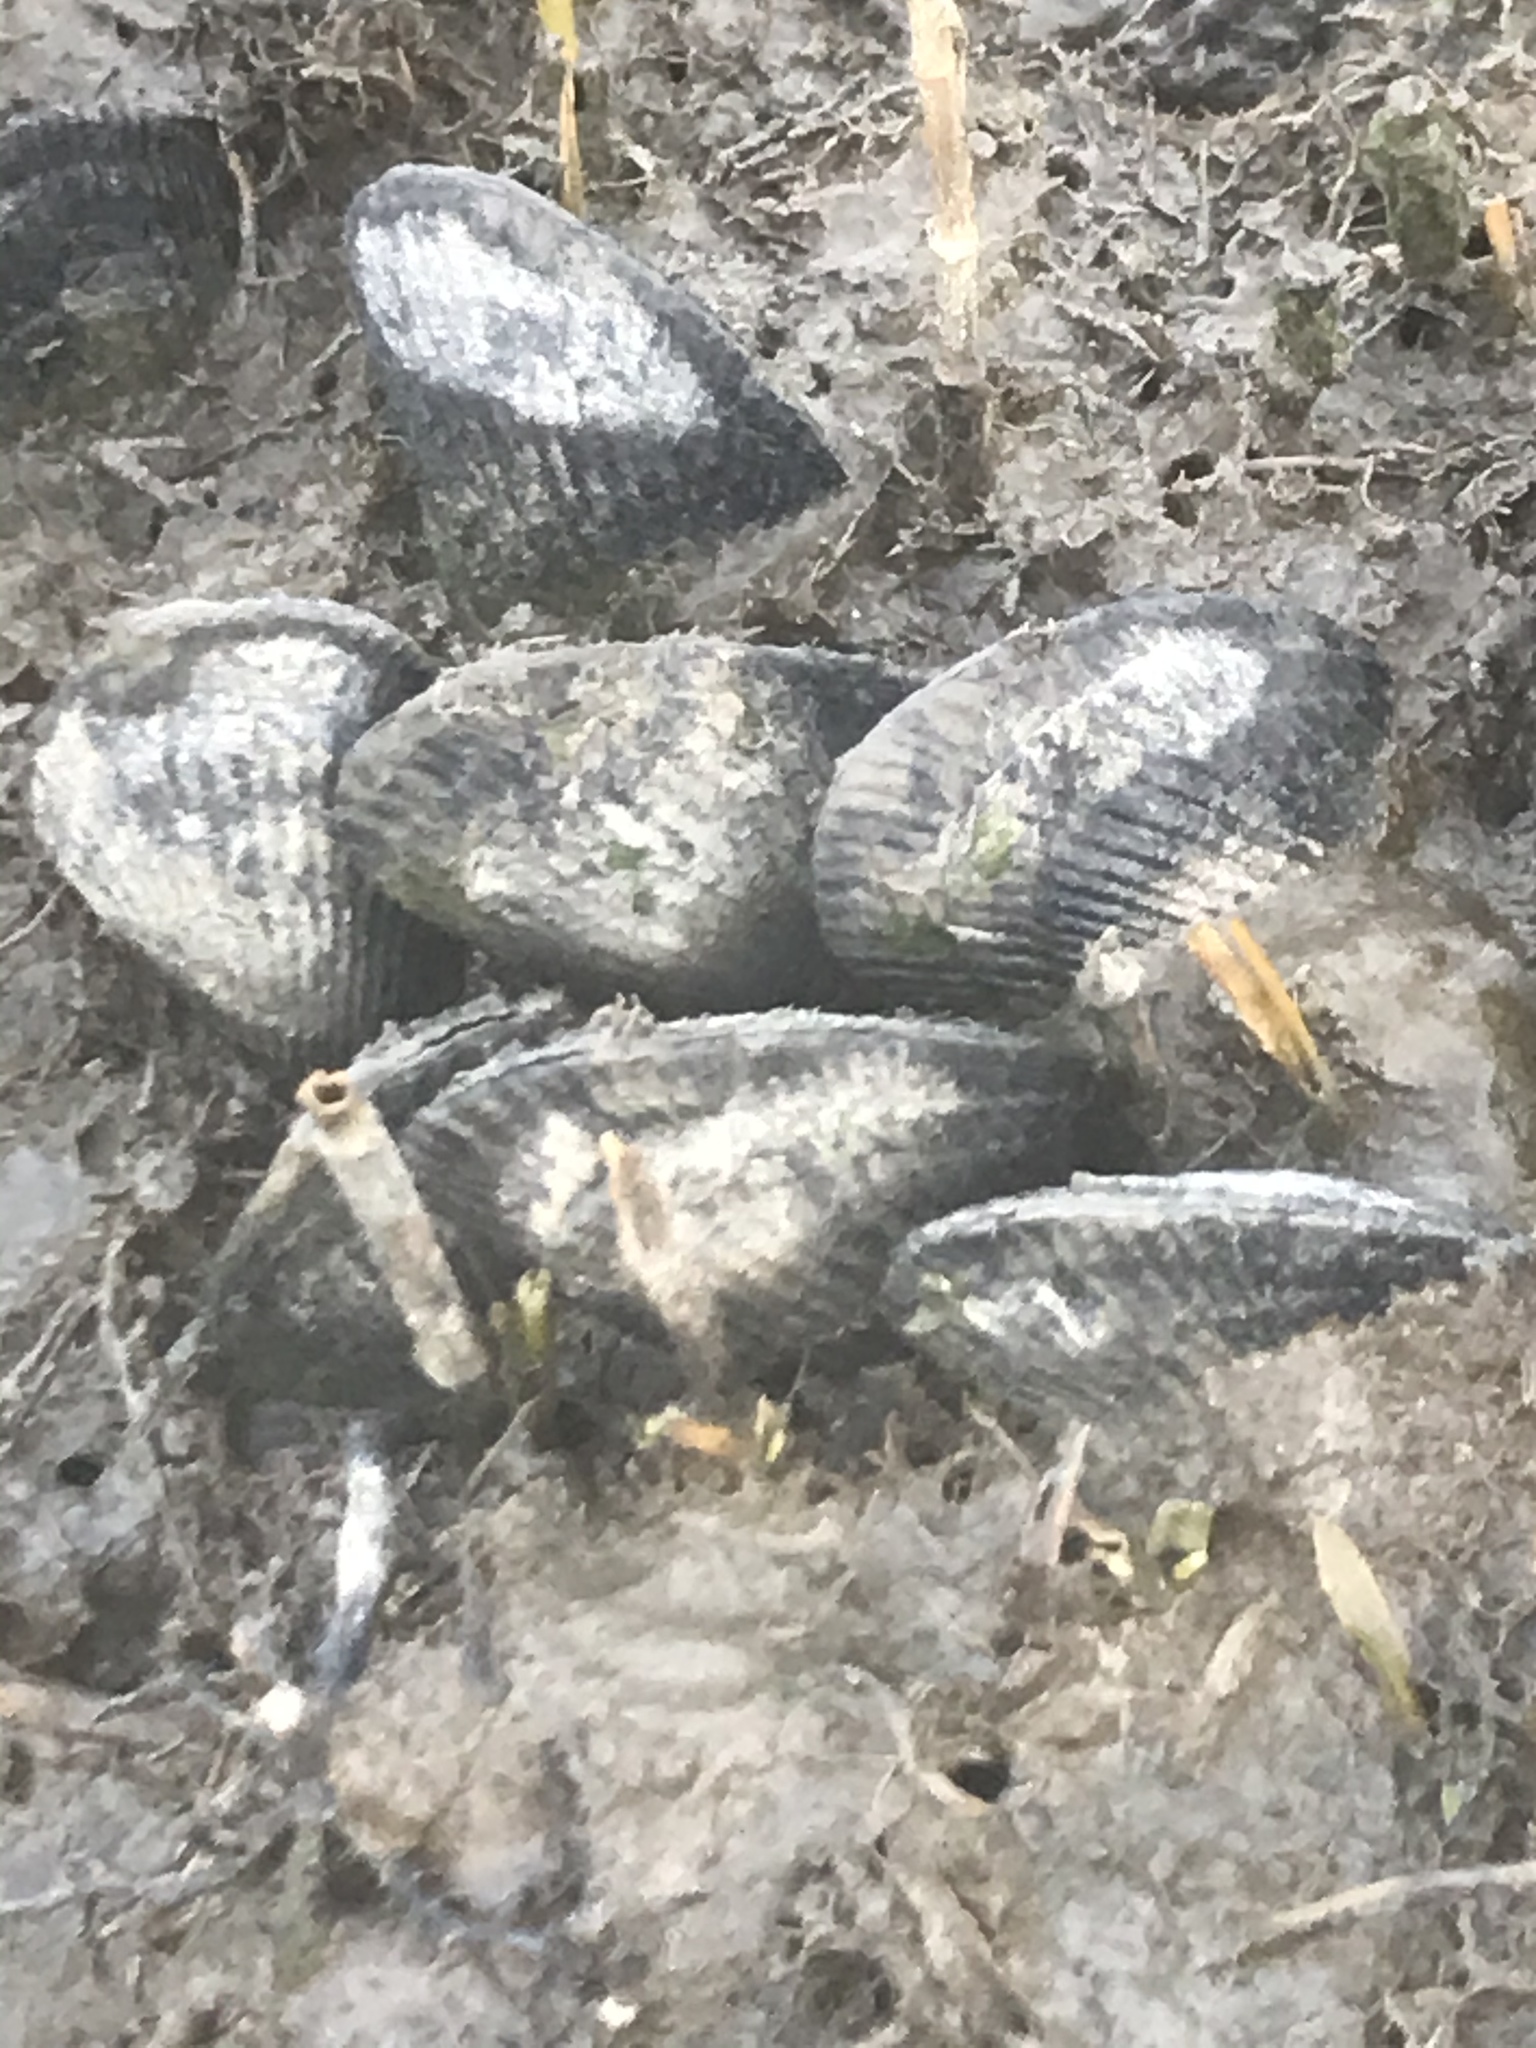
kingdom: Animalia
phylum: Mollusca
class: Bivalvia
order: Mytilida
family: Mytilidae
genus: Geukensia
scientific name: Geukensia demissa
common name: Ribbed mussel
